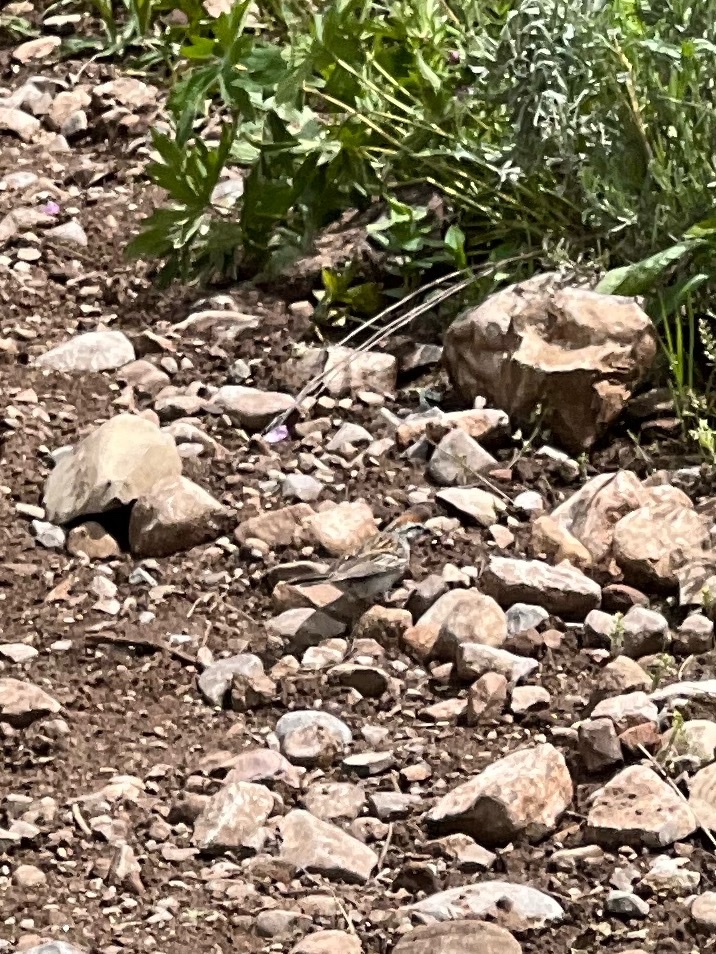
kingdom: Animalia
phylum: Chordata
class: Aves
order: Passeriformes
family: Passerellidae
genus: Spizella
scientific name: Spizella passerina
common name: Chipping sparrow
